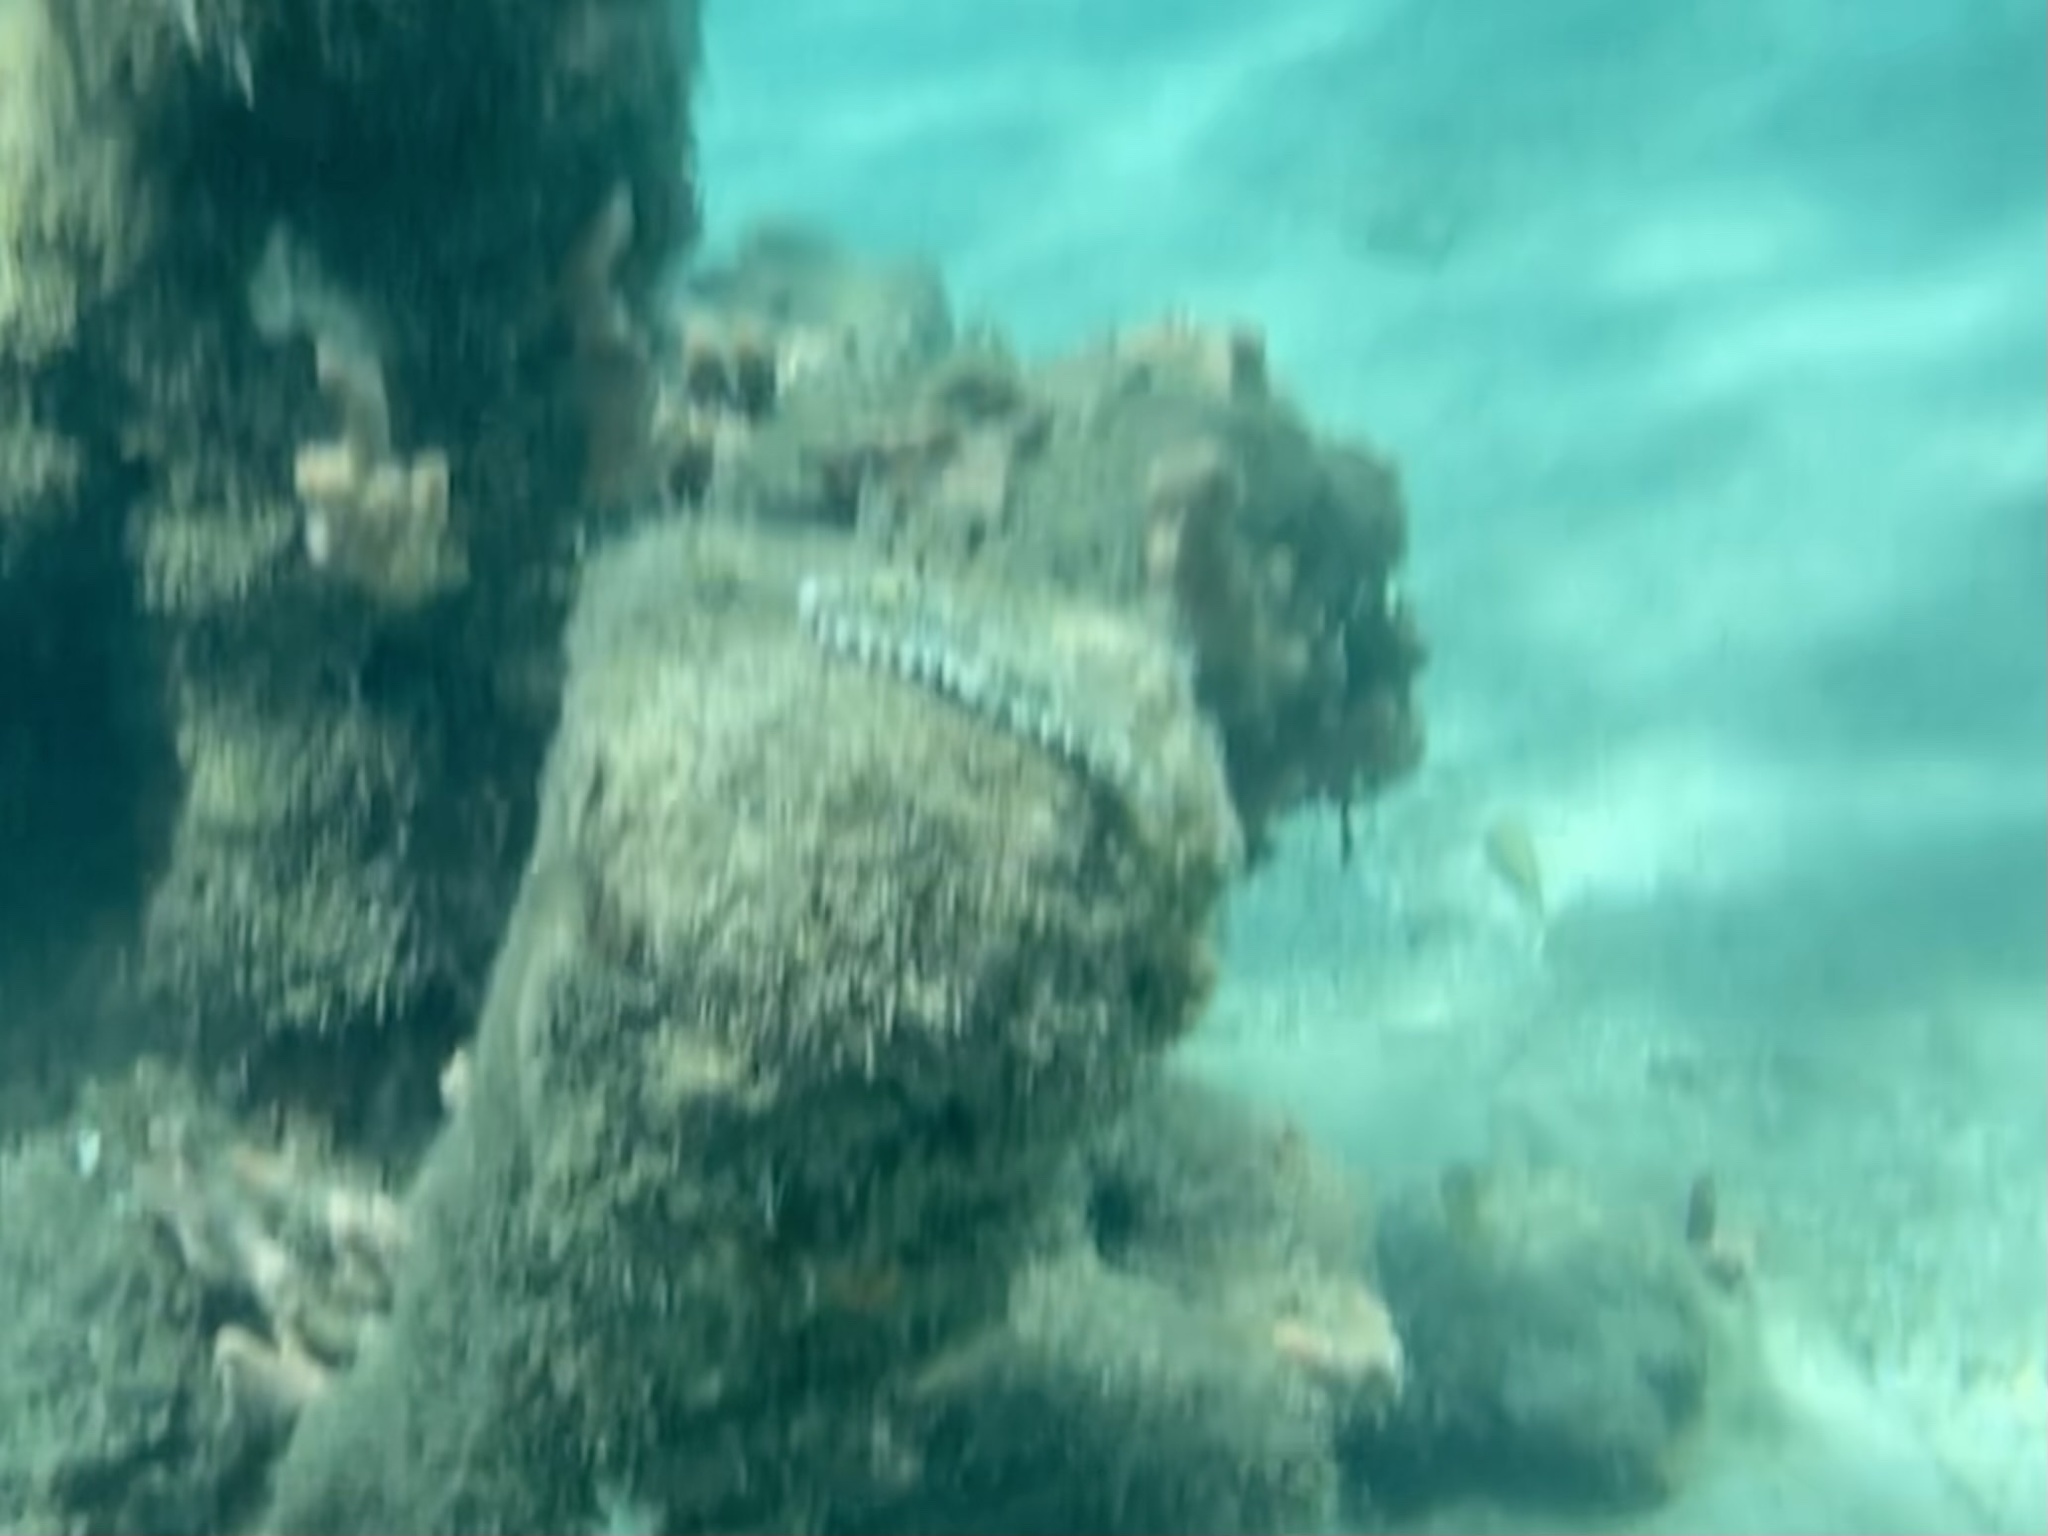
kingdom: Animalia
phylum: Chordata
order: Tetraodontiformes
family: Tetraodontidae
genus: Sphoeroides
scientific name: Sphoeroides spengleri
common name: Bandtail puffer
